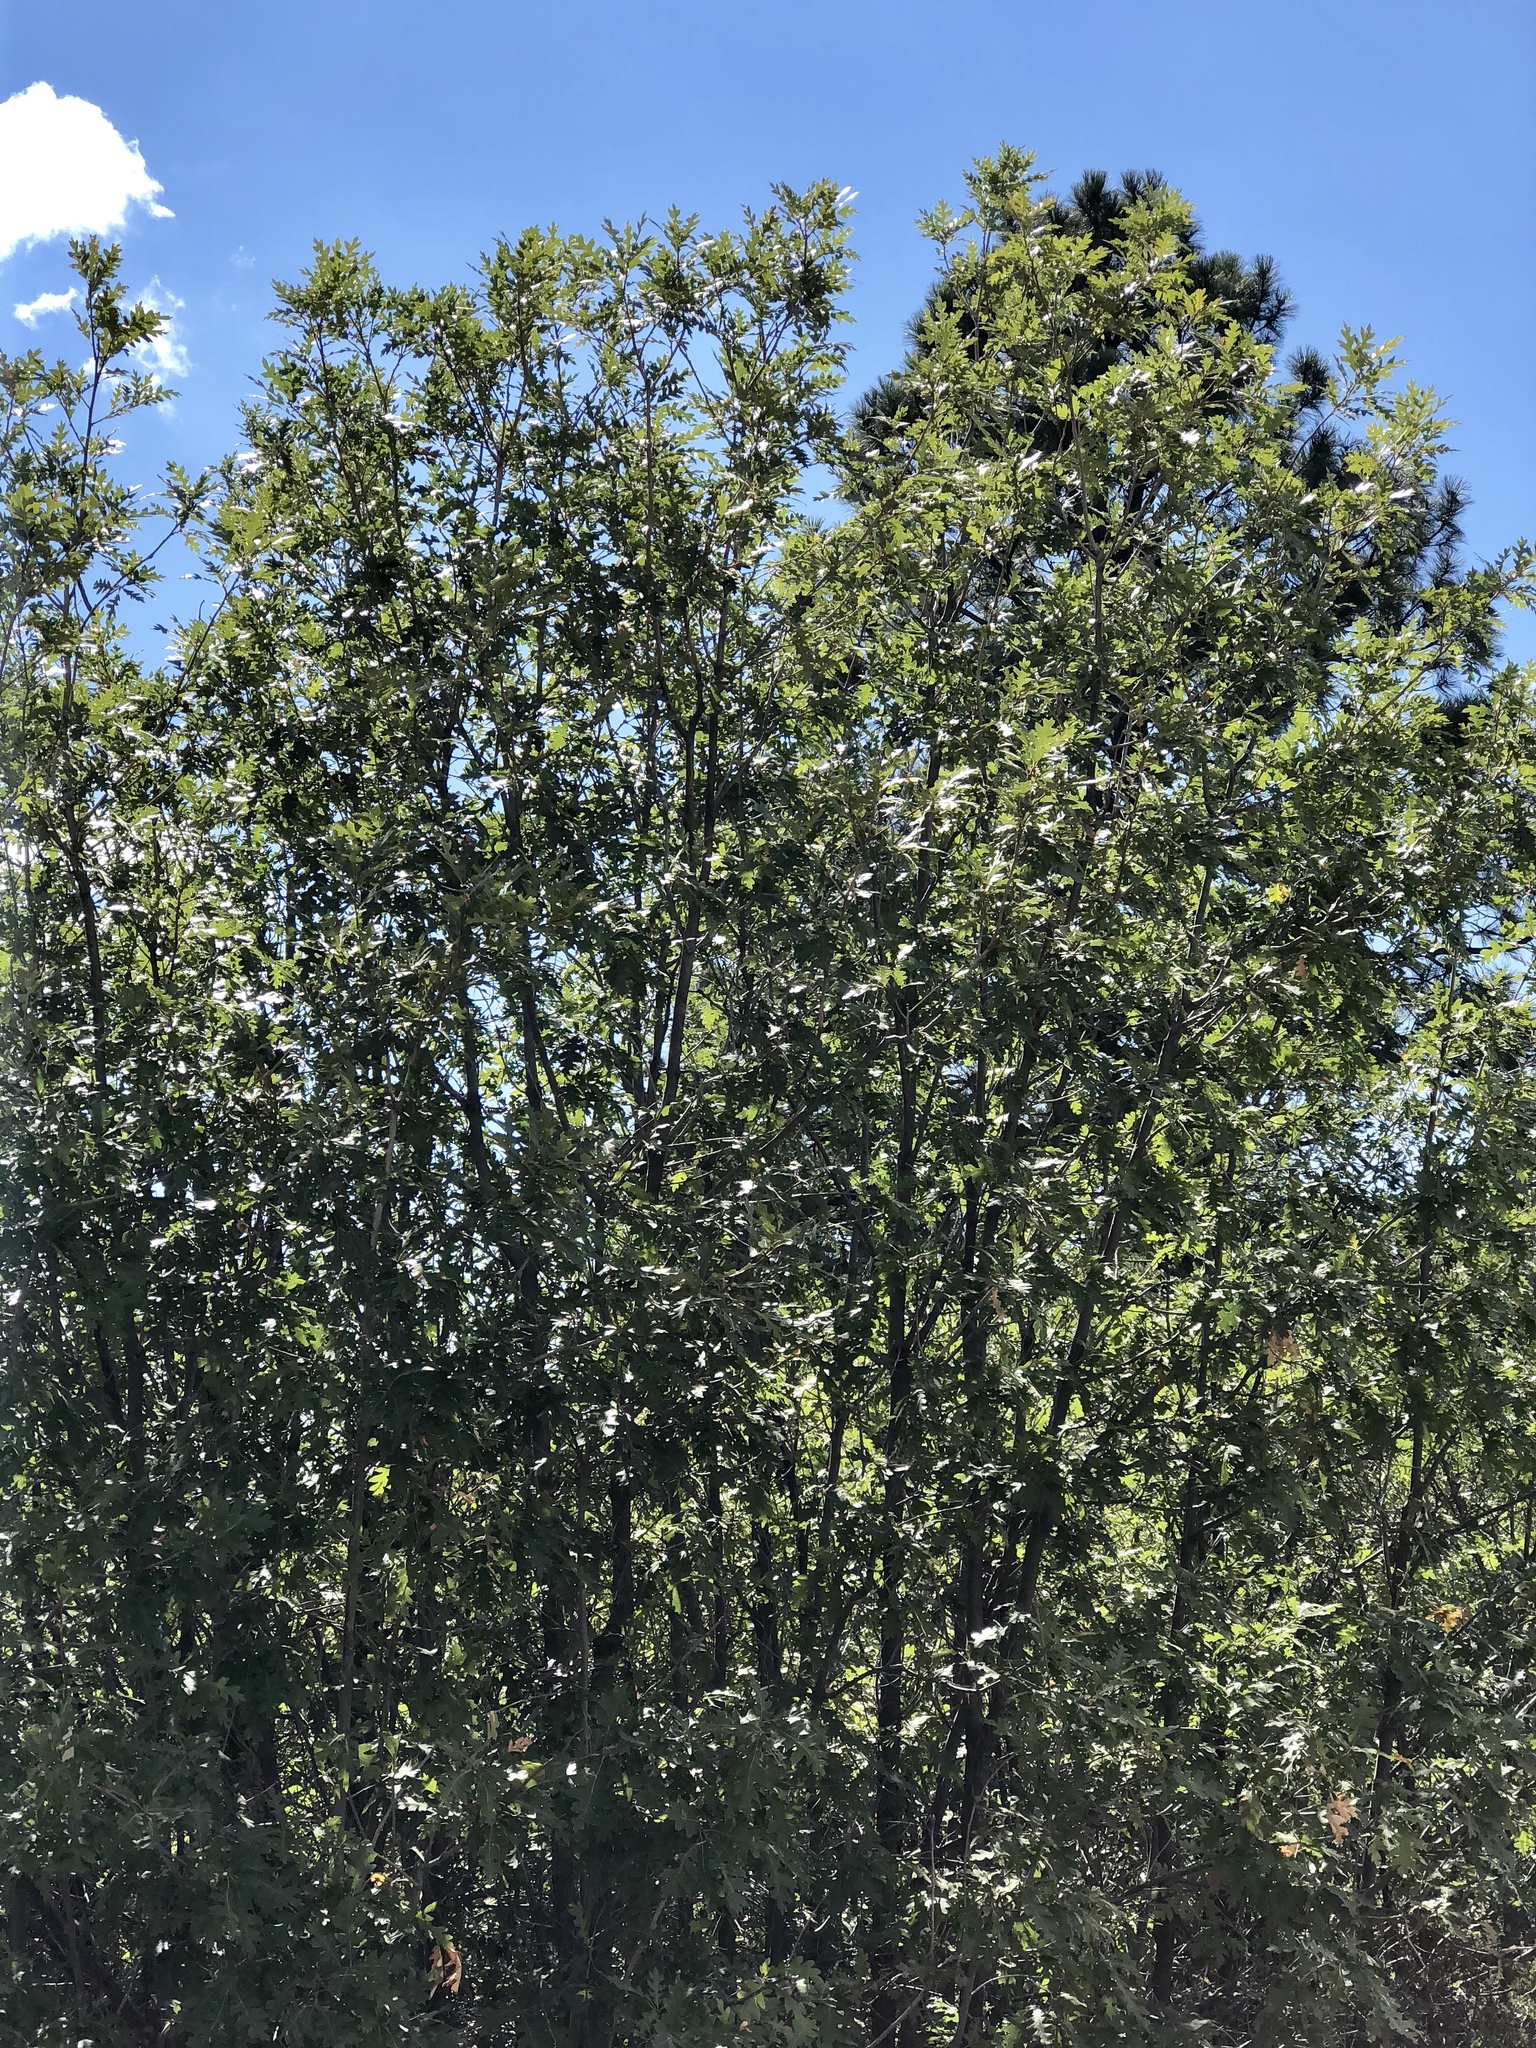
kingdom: Plantae
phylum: Tracheophyta
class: Magnoliopsida
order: Fagales
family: Fagaceae
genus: Quercus
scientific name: Quercus gambelii
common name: Gambel oak
